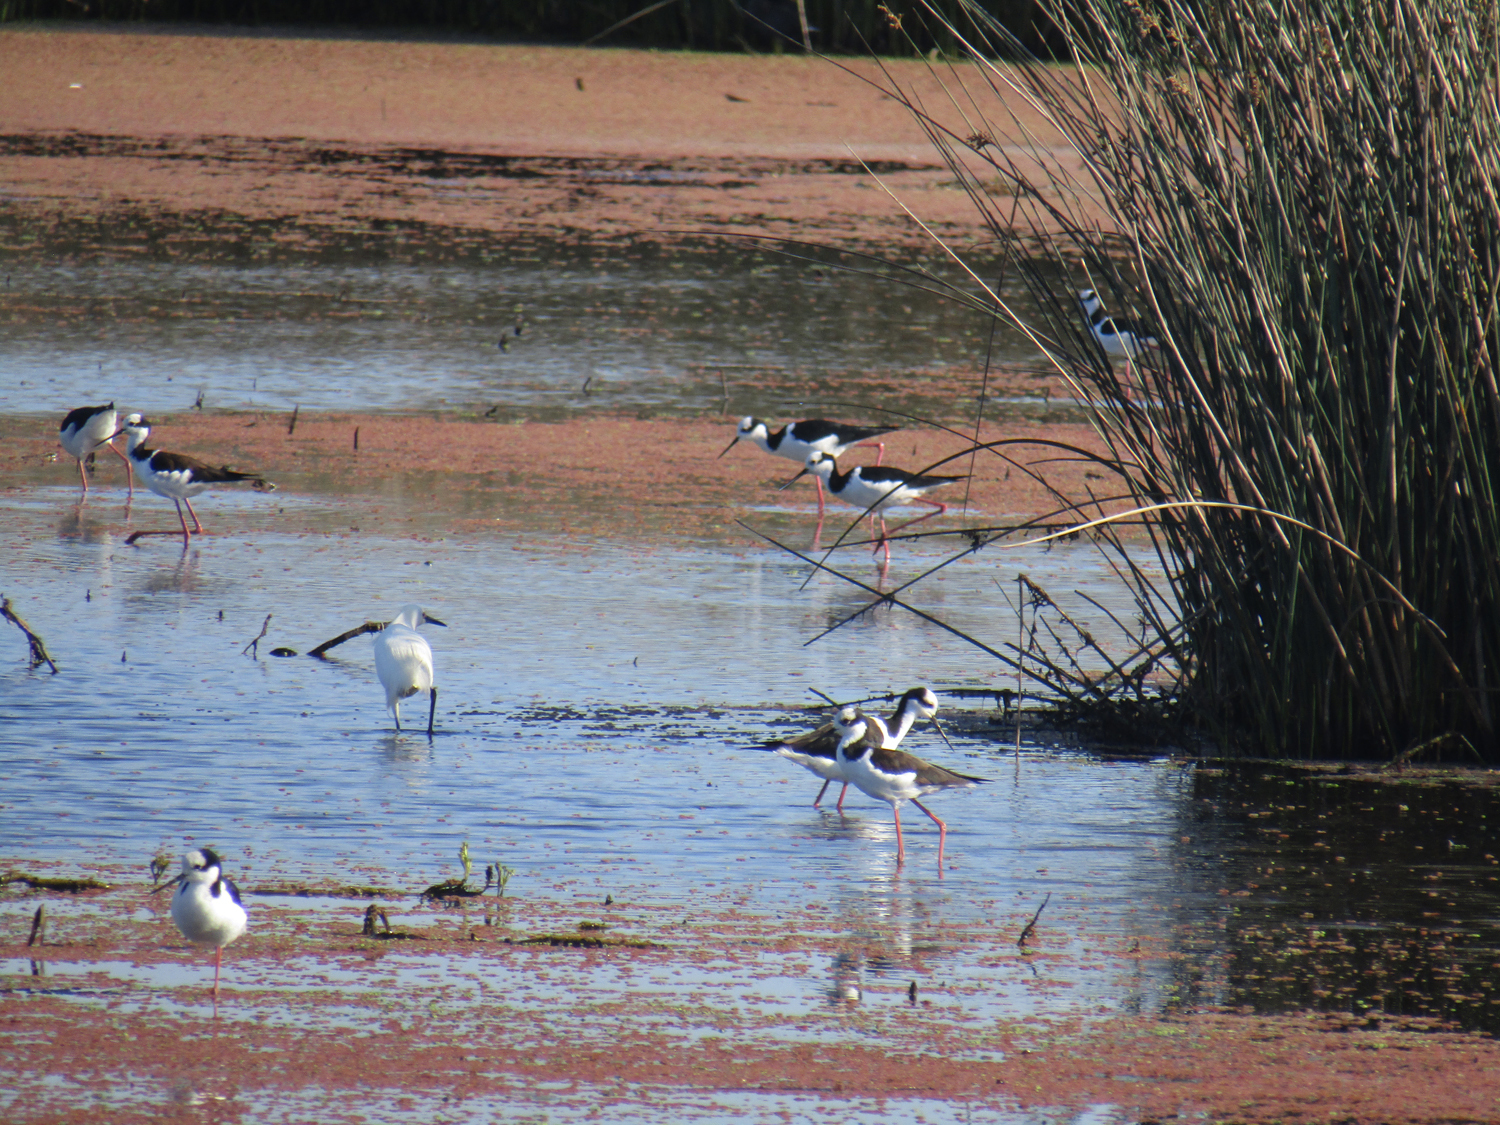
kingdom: Animalia
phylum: Chordata
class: Aves
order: Charadriiformes
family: Recurvirostridae
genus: Himantopus
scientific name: Himantopus mexicanus
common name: Black-necked stilt
